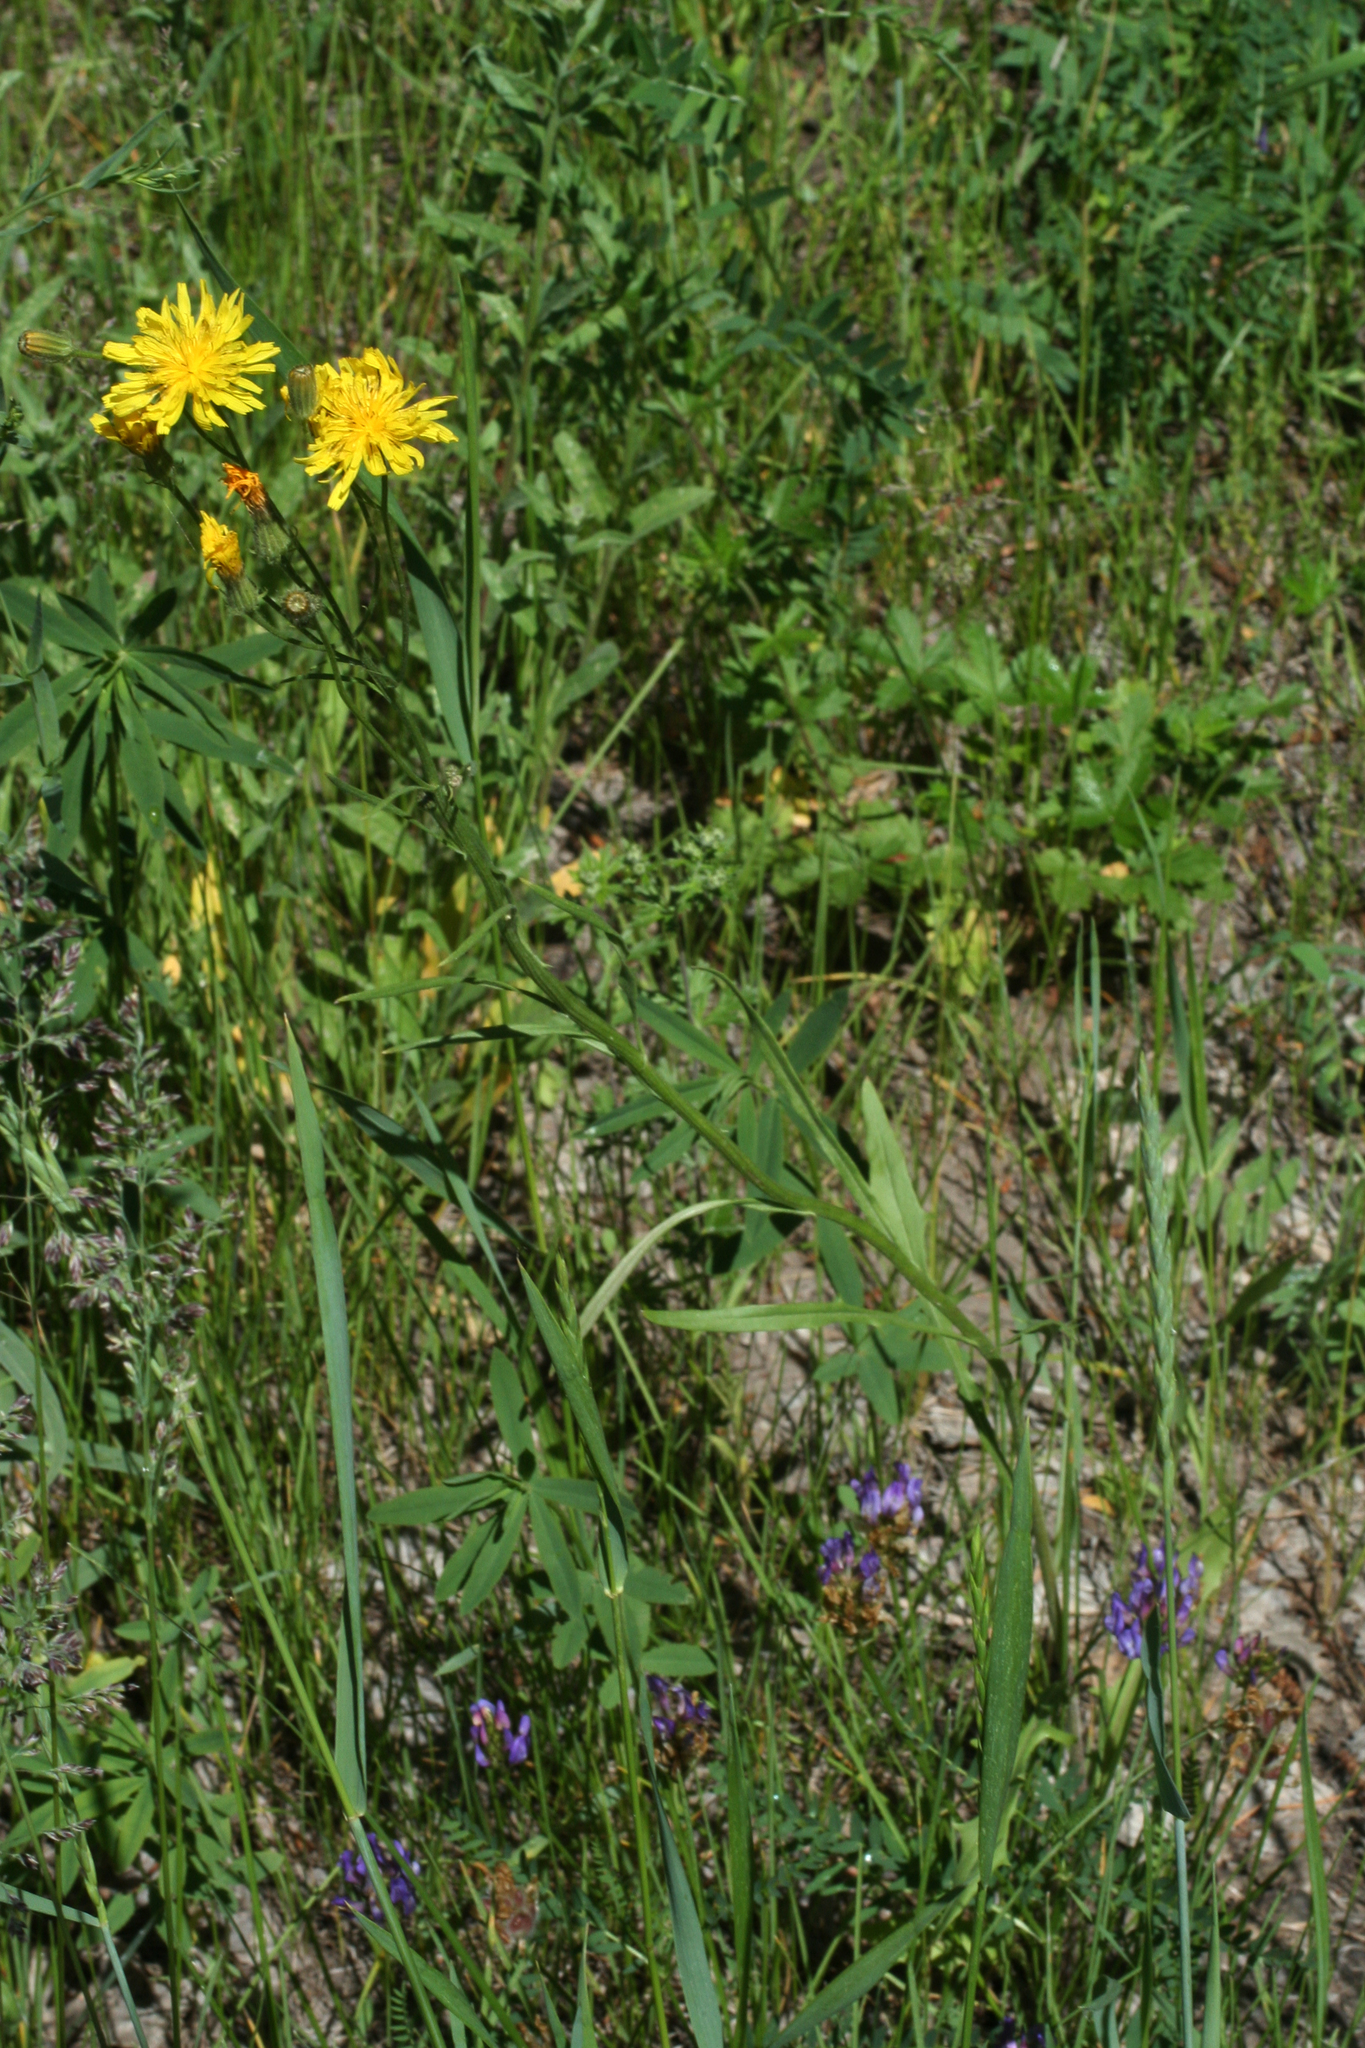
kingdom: Plantae
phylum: Tracheophyta
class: Magnoliopsida
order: Asterales
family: Asteraceae
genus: Crepis
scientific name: Crepis tectorum
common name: Narrow-leaved hawk's-beard
